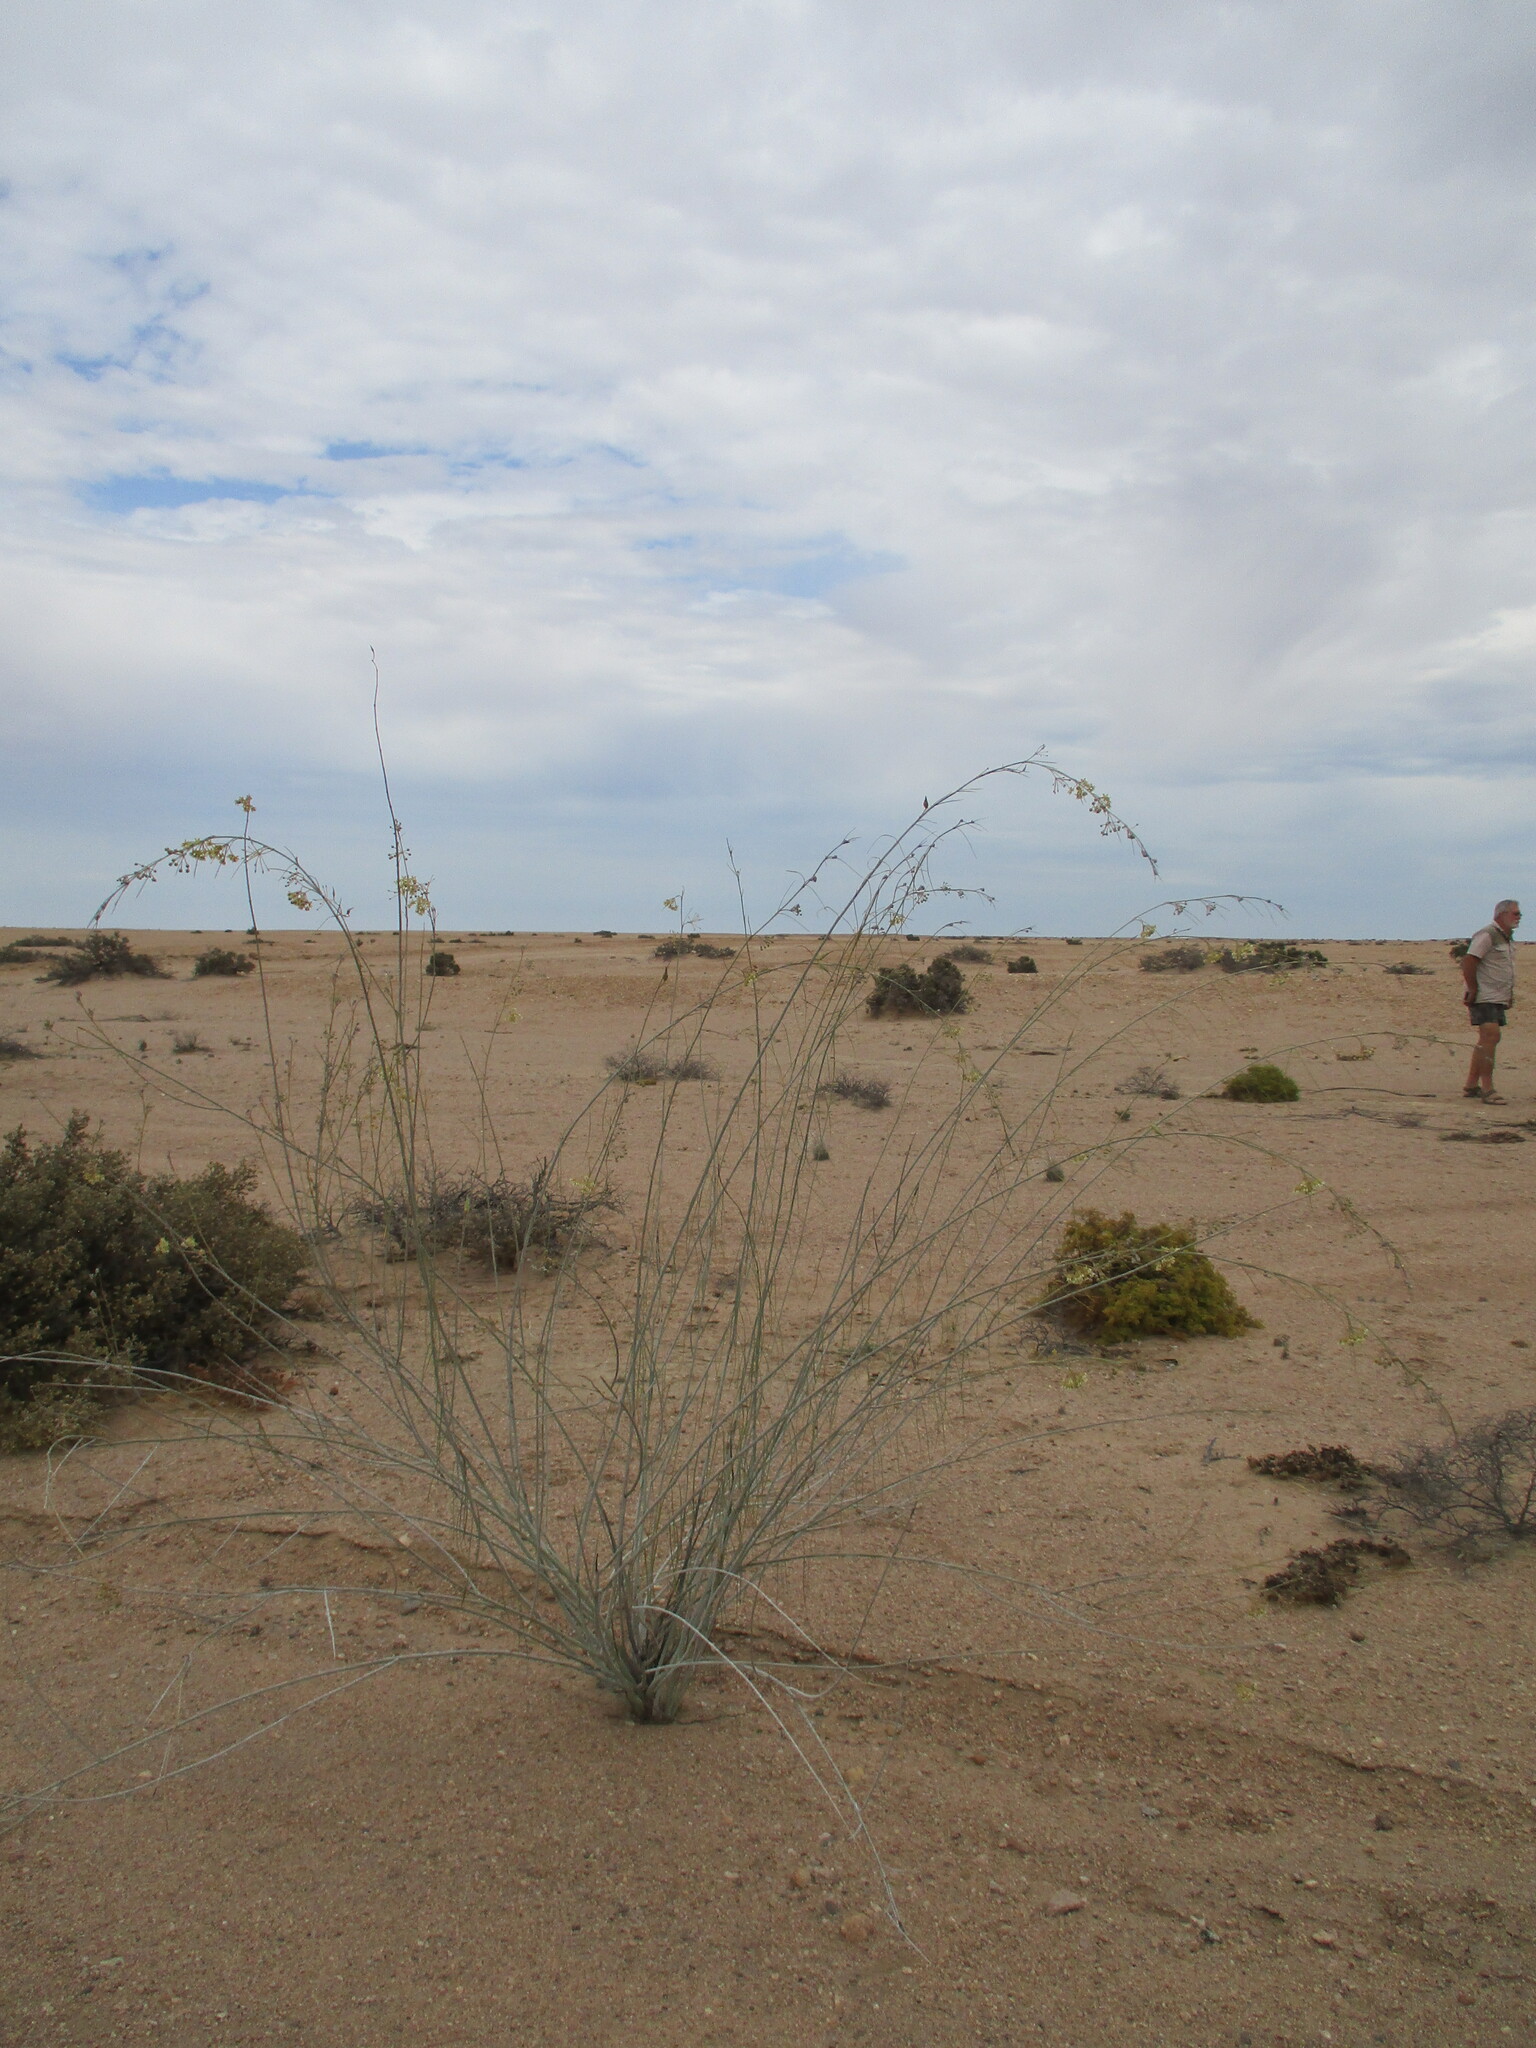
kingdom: Plantae
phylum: Tracheophyta
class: Magnoliopsida
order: Gentianales
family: Apocynaceae
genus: Gomphocarpus
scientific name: Gomphocarpus filiformis
